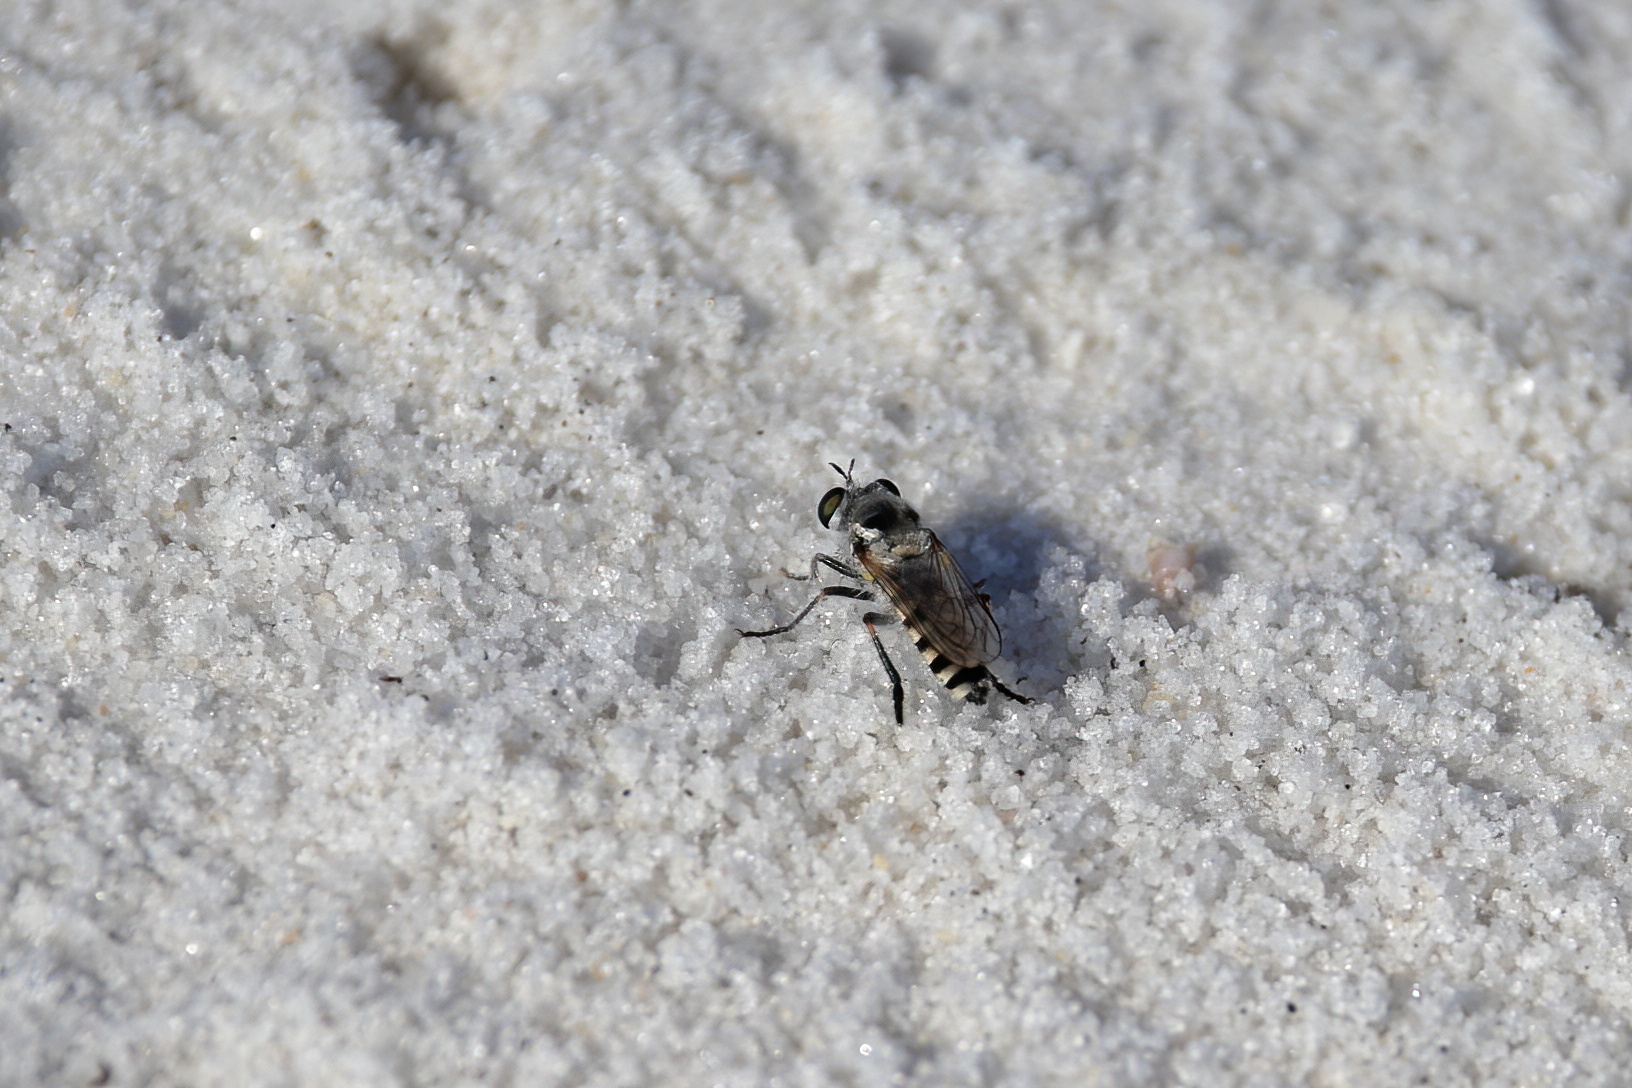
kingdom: Animalia
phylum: Arthropoda
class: Insecta
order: Diptera
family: Asilidae
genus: Laphystia
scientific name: Laphystia texensis
